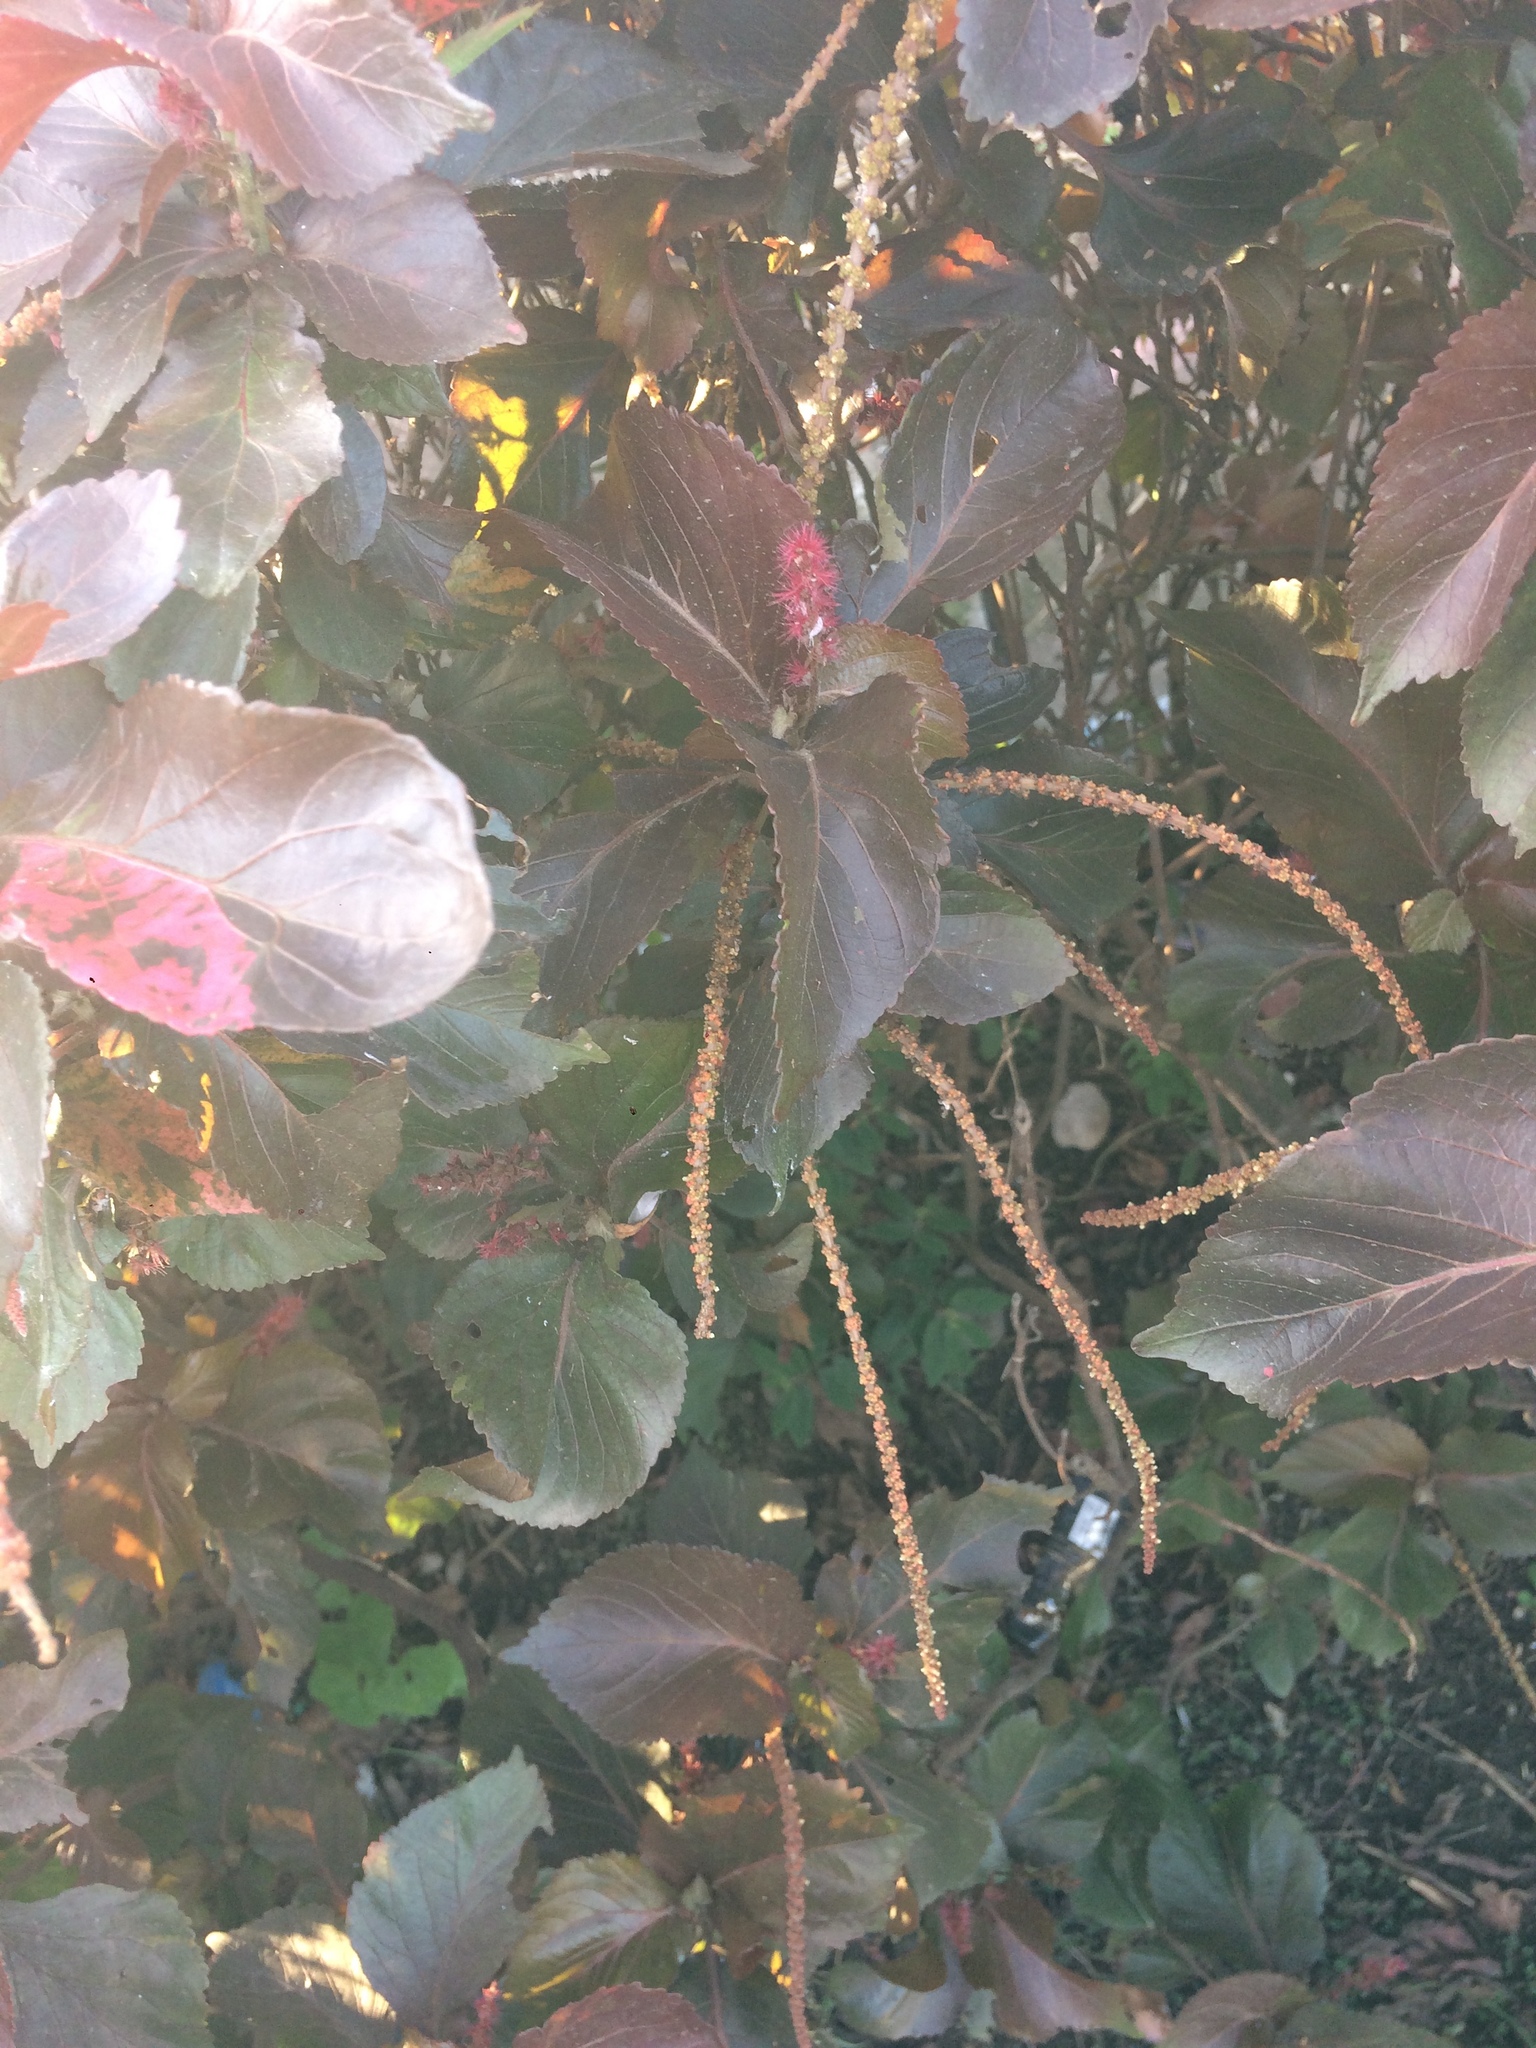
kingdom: Plantae
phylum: Tracheophyta
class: Magnoliopsida
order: Malpighiales
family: Euphorbiaceae
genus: Acalypha
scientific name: Acalypha wilkesiana
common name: Jacob's coat
